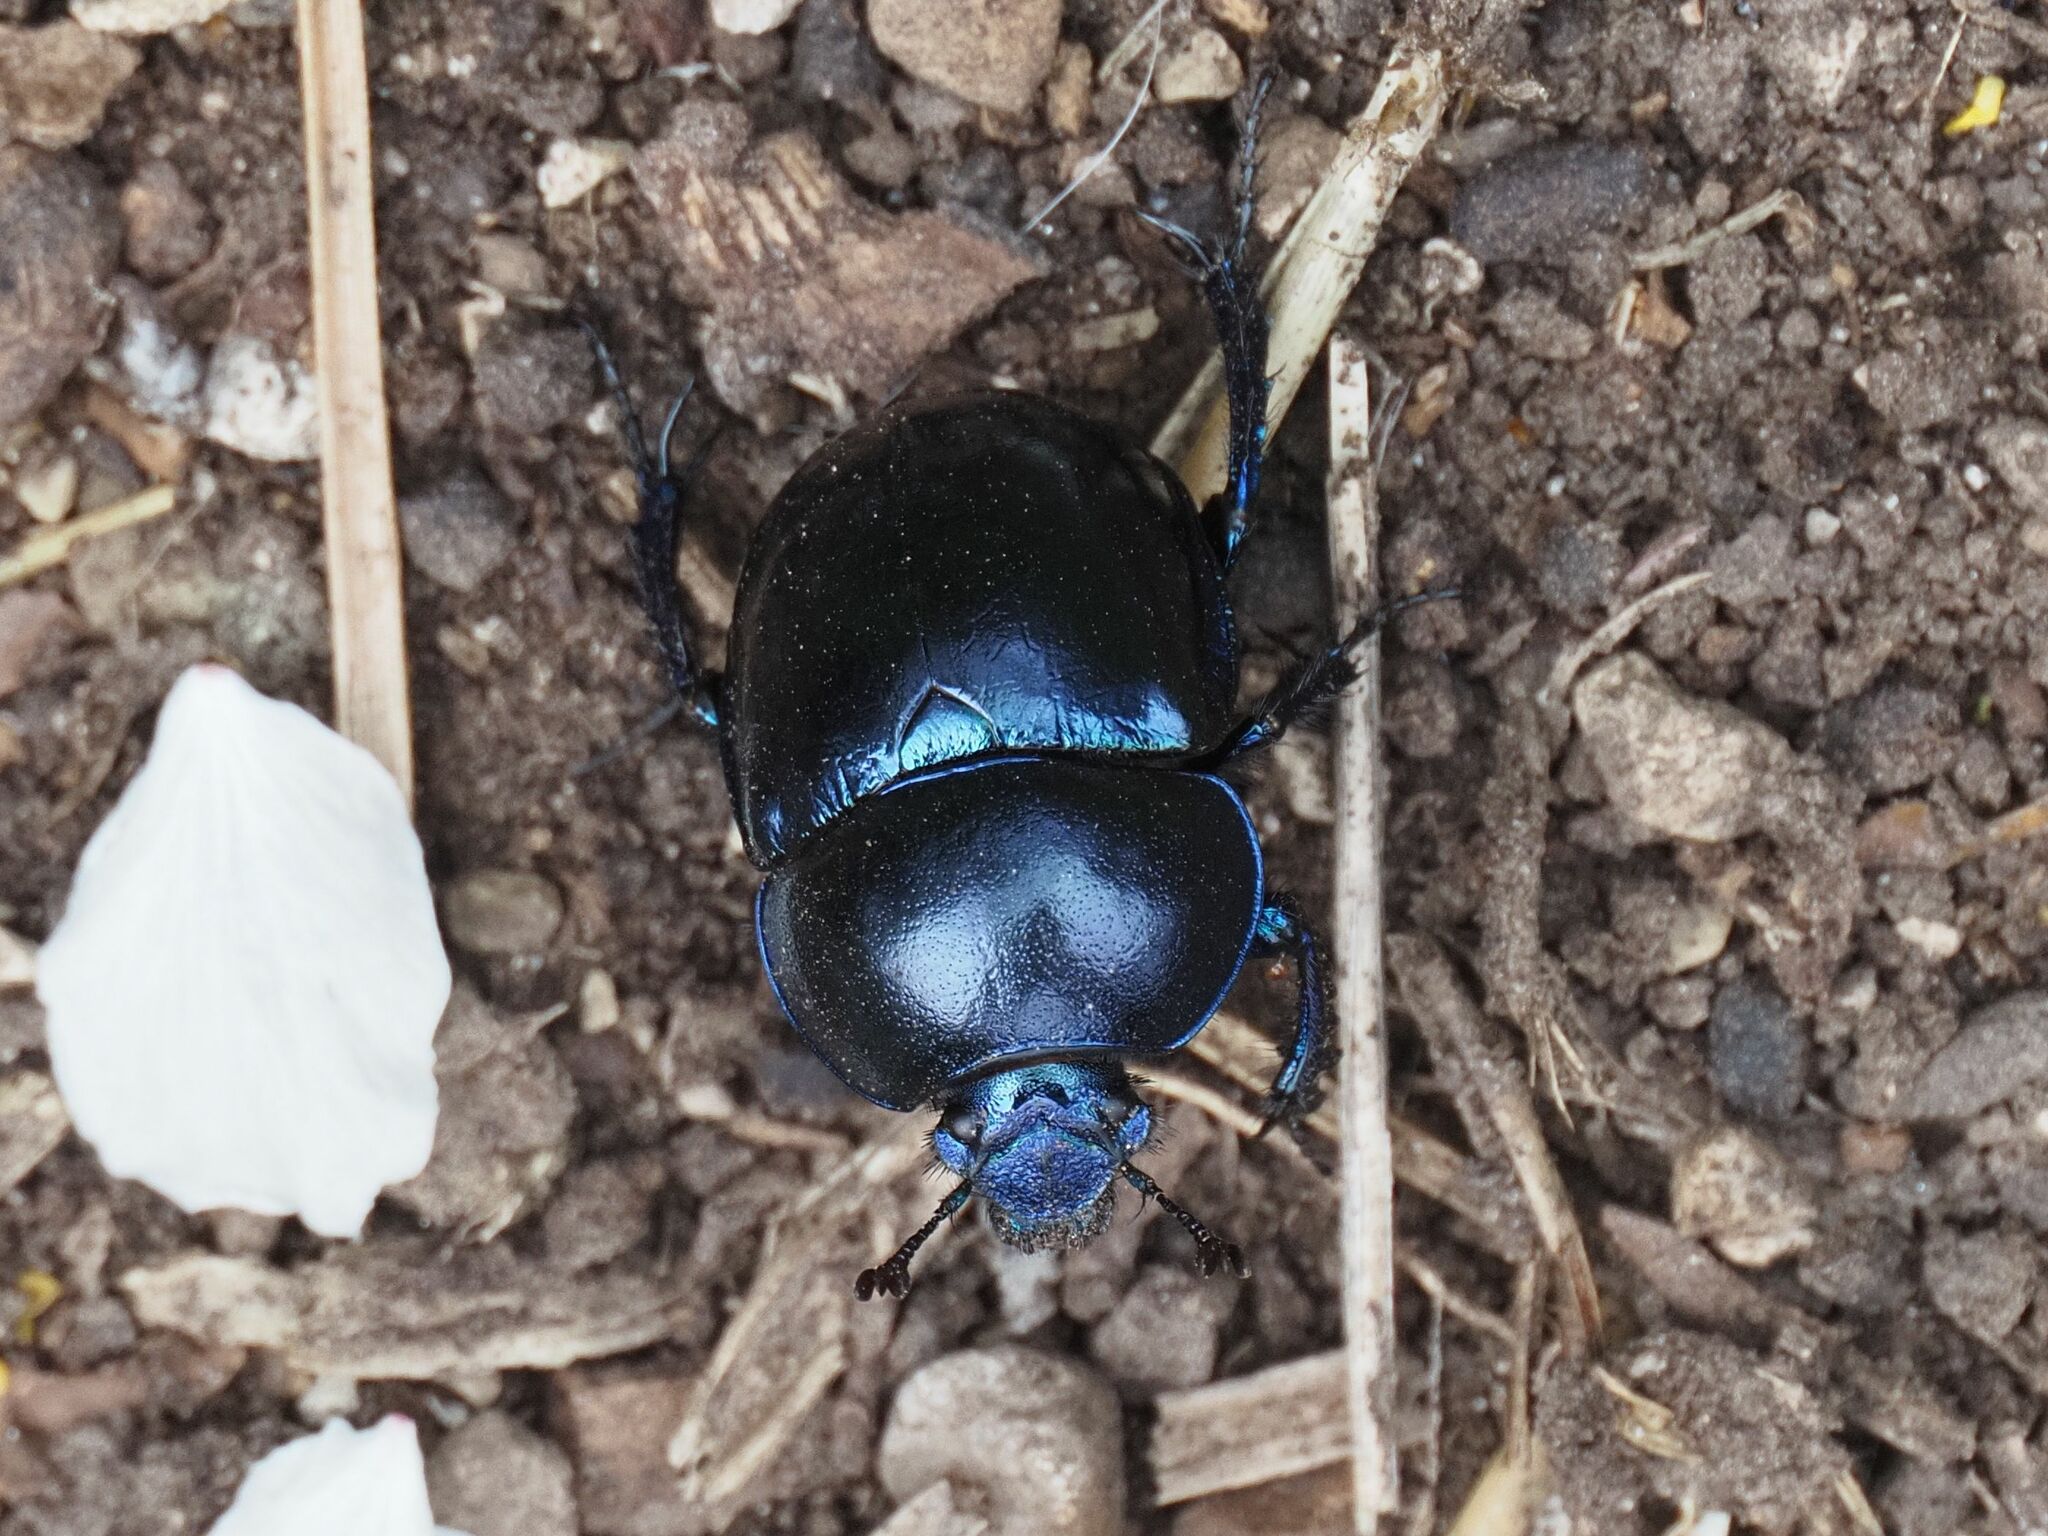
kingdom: Animalia
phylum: Arthropoda
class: Insecta
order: Coleoptera
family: Geotrupidae
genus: Trypocopris
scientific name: Trypocopris vernalis
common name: Spring dumbledor
